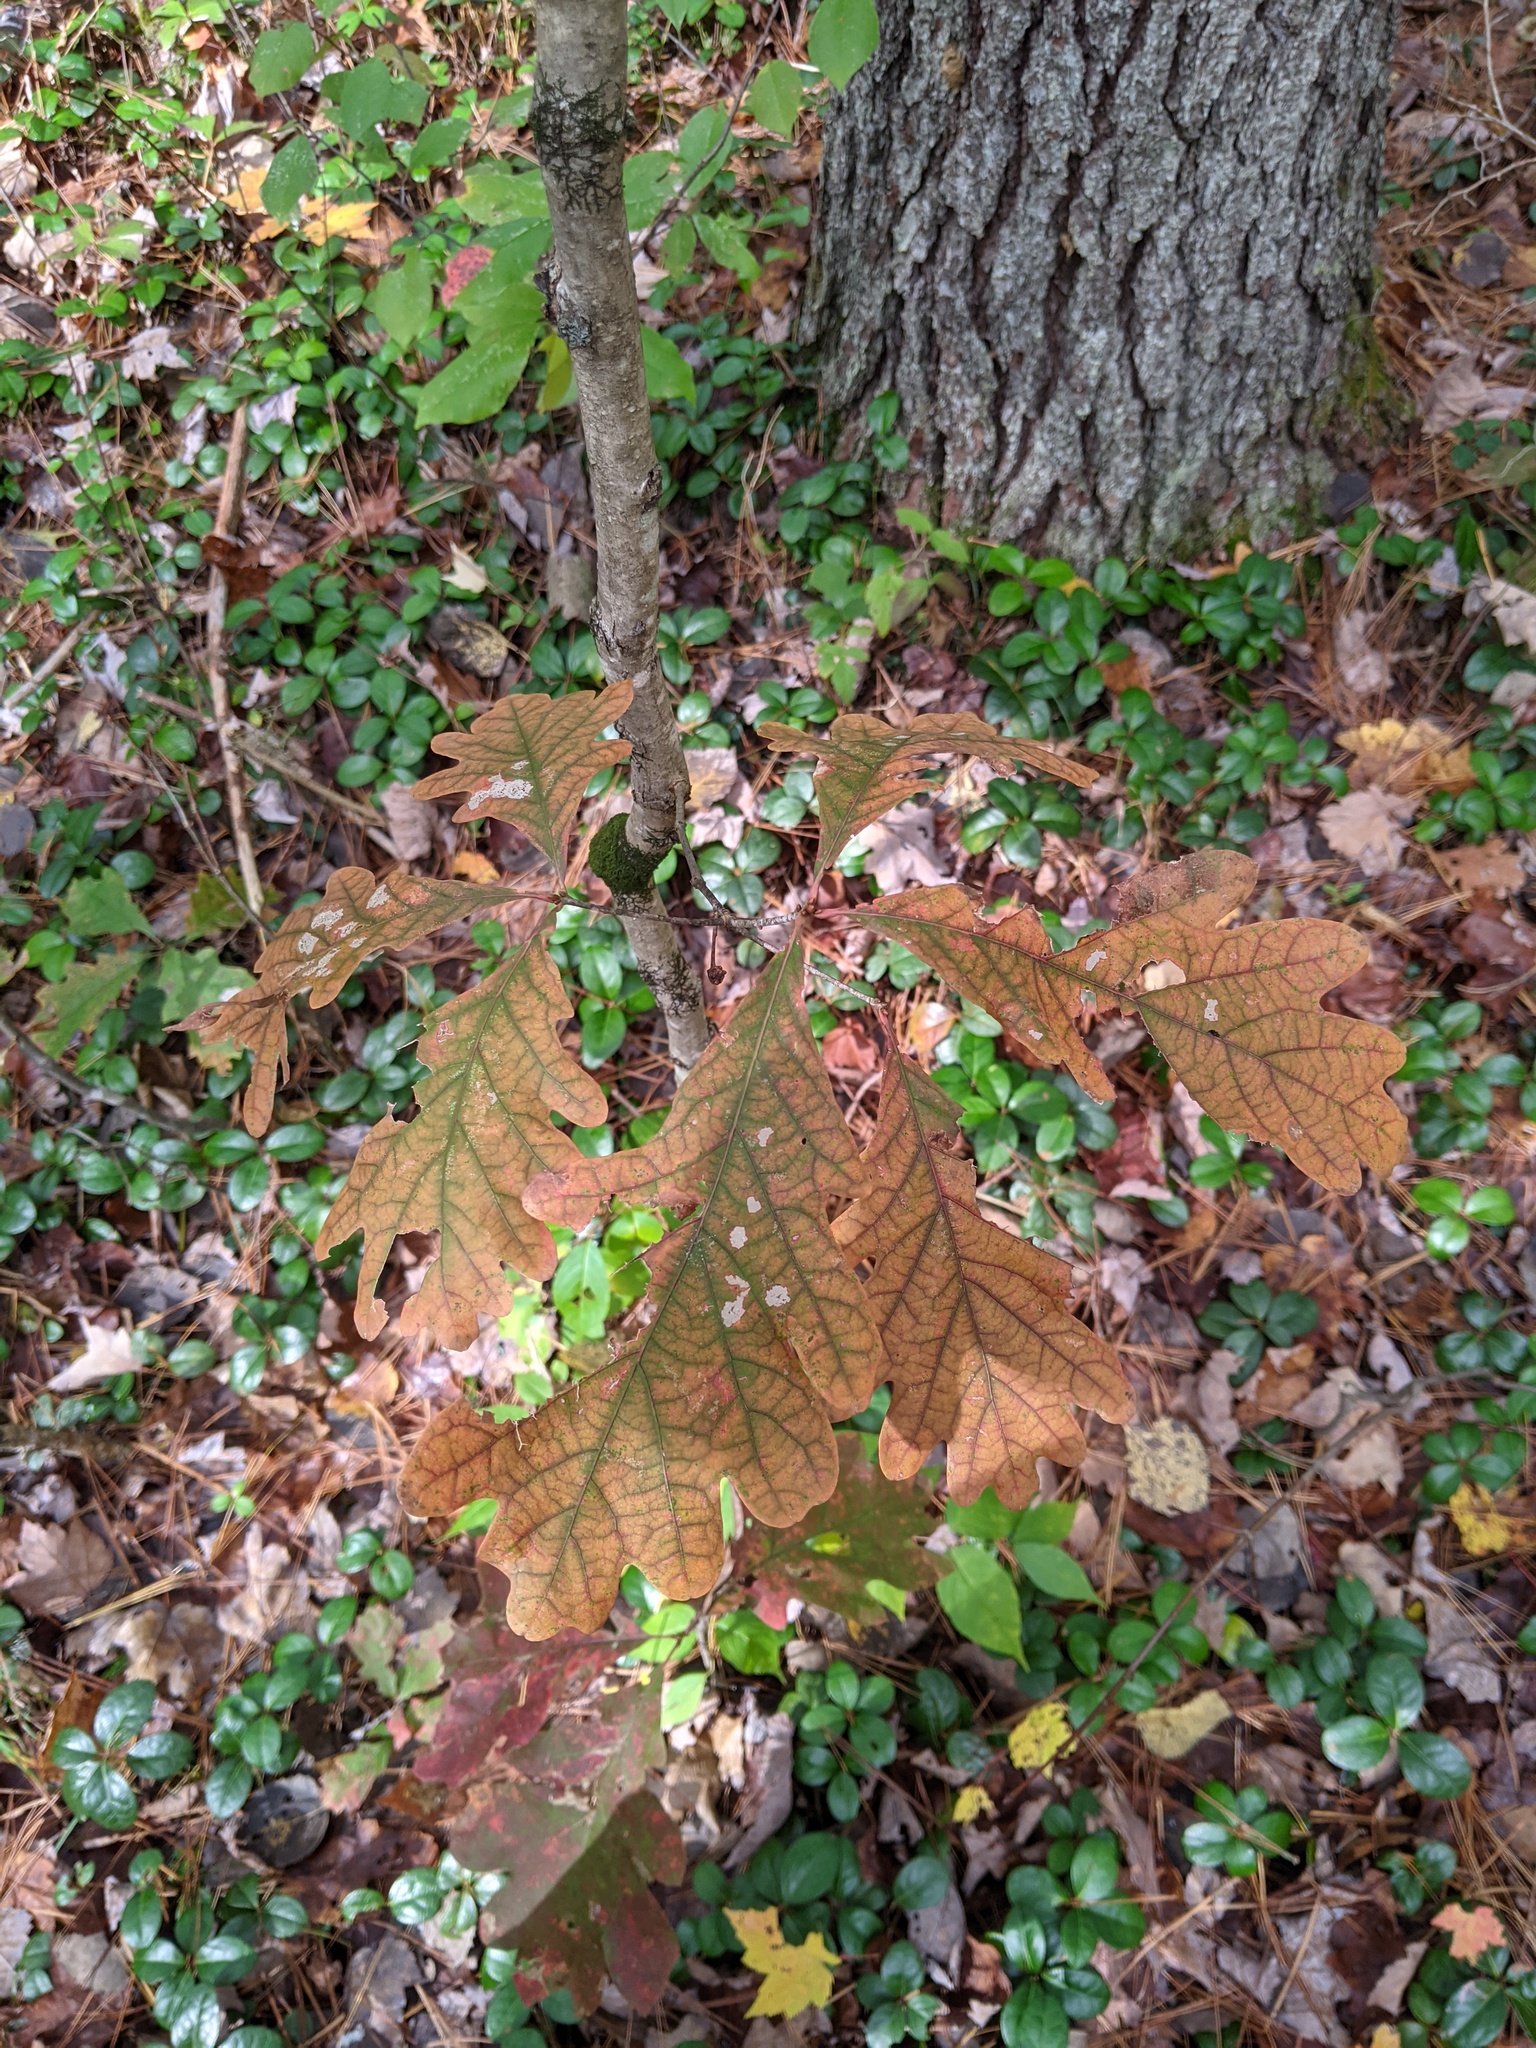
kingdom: Plantae
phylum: Tracheophyta
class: Magnoliopsida
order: Fagales
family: Fagaceae
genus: Quercus
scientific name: Quercus alba
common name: White oak
